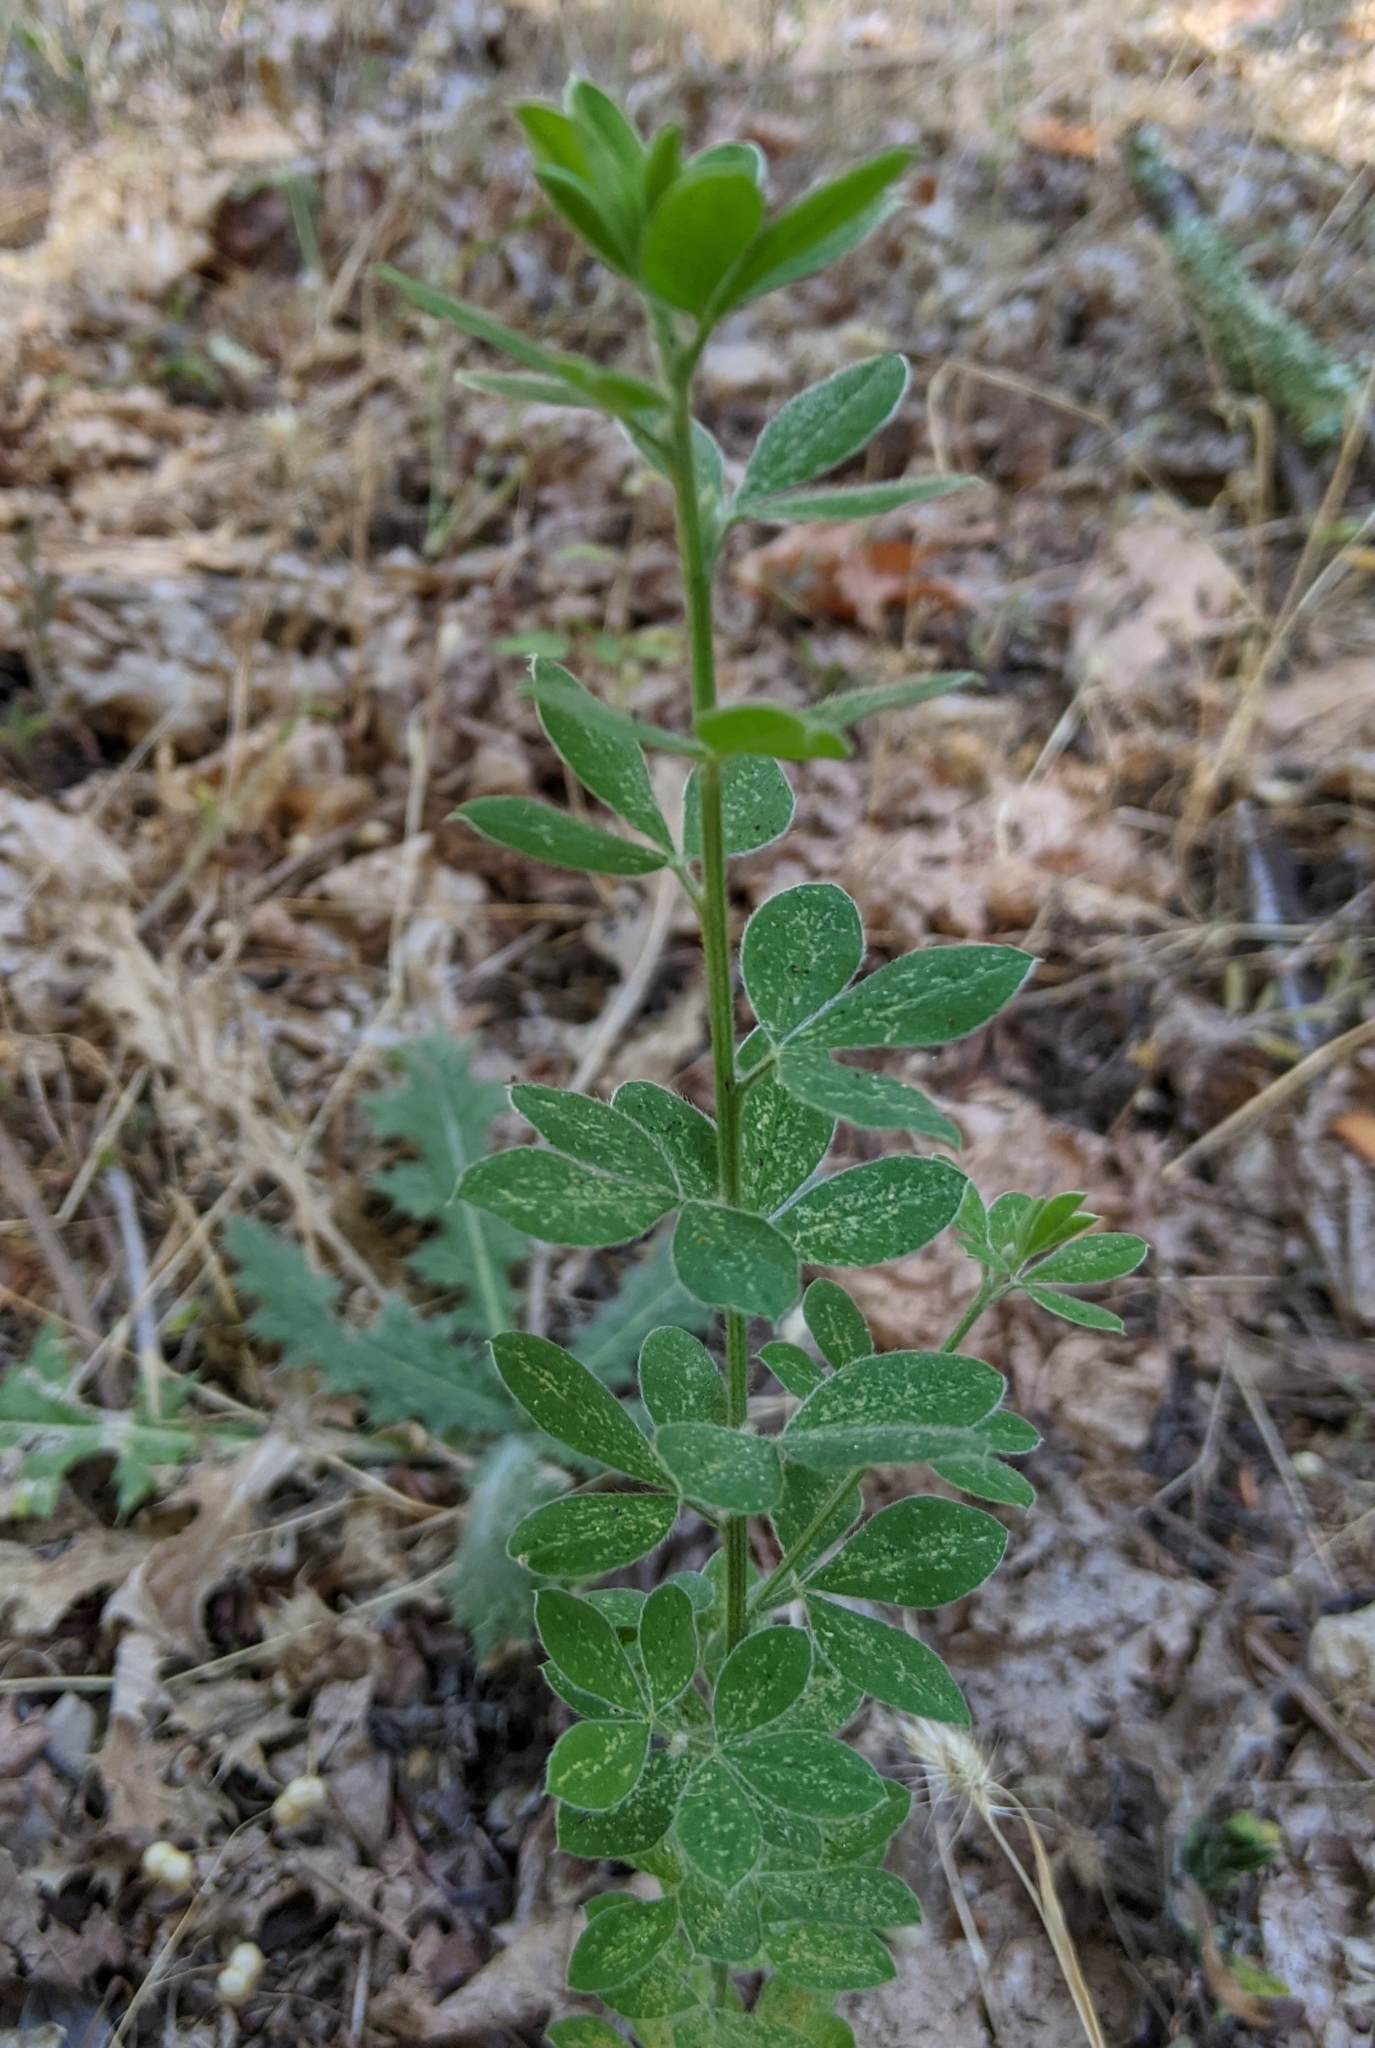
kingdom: Plantae
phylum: Tracheophyta
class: Magnoliopsida
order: Fabales
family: Fabaceae
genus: Genista
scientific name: Genista monspessulana
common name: Montpellier broom
